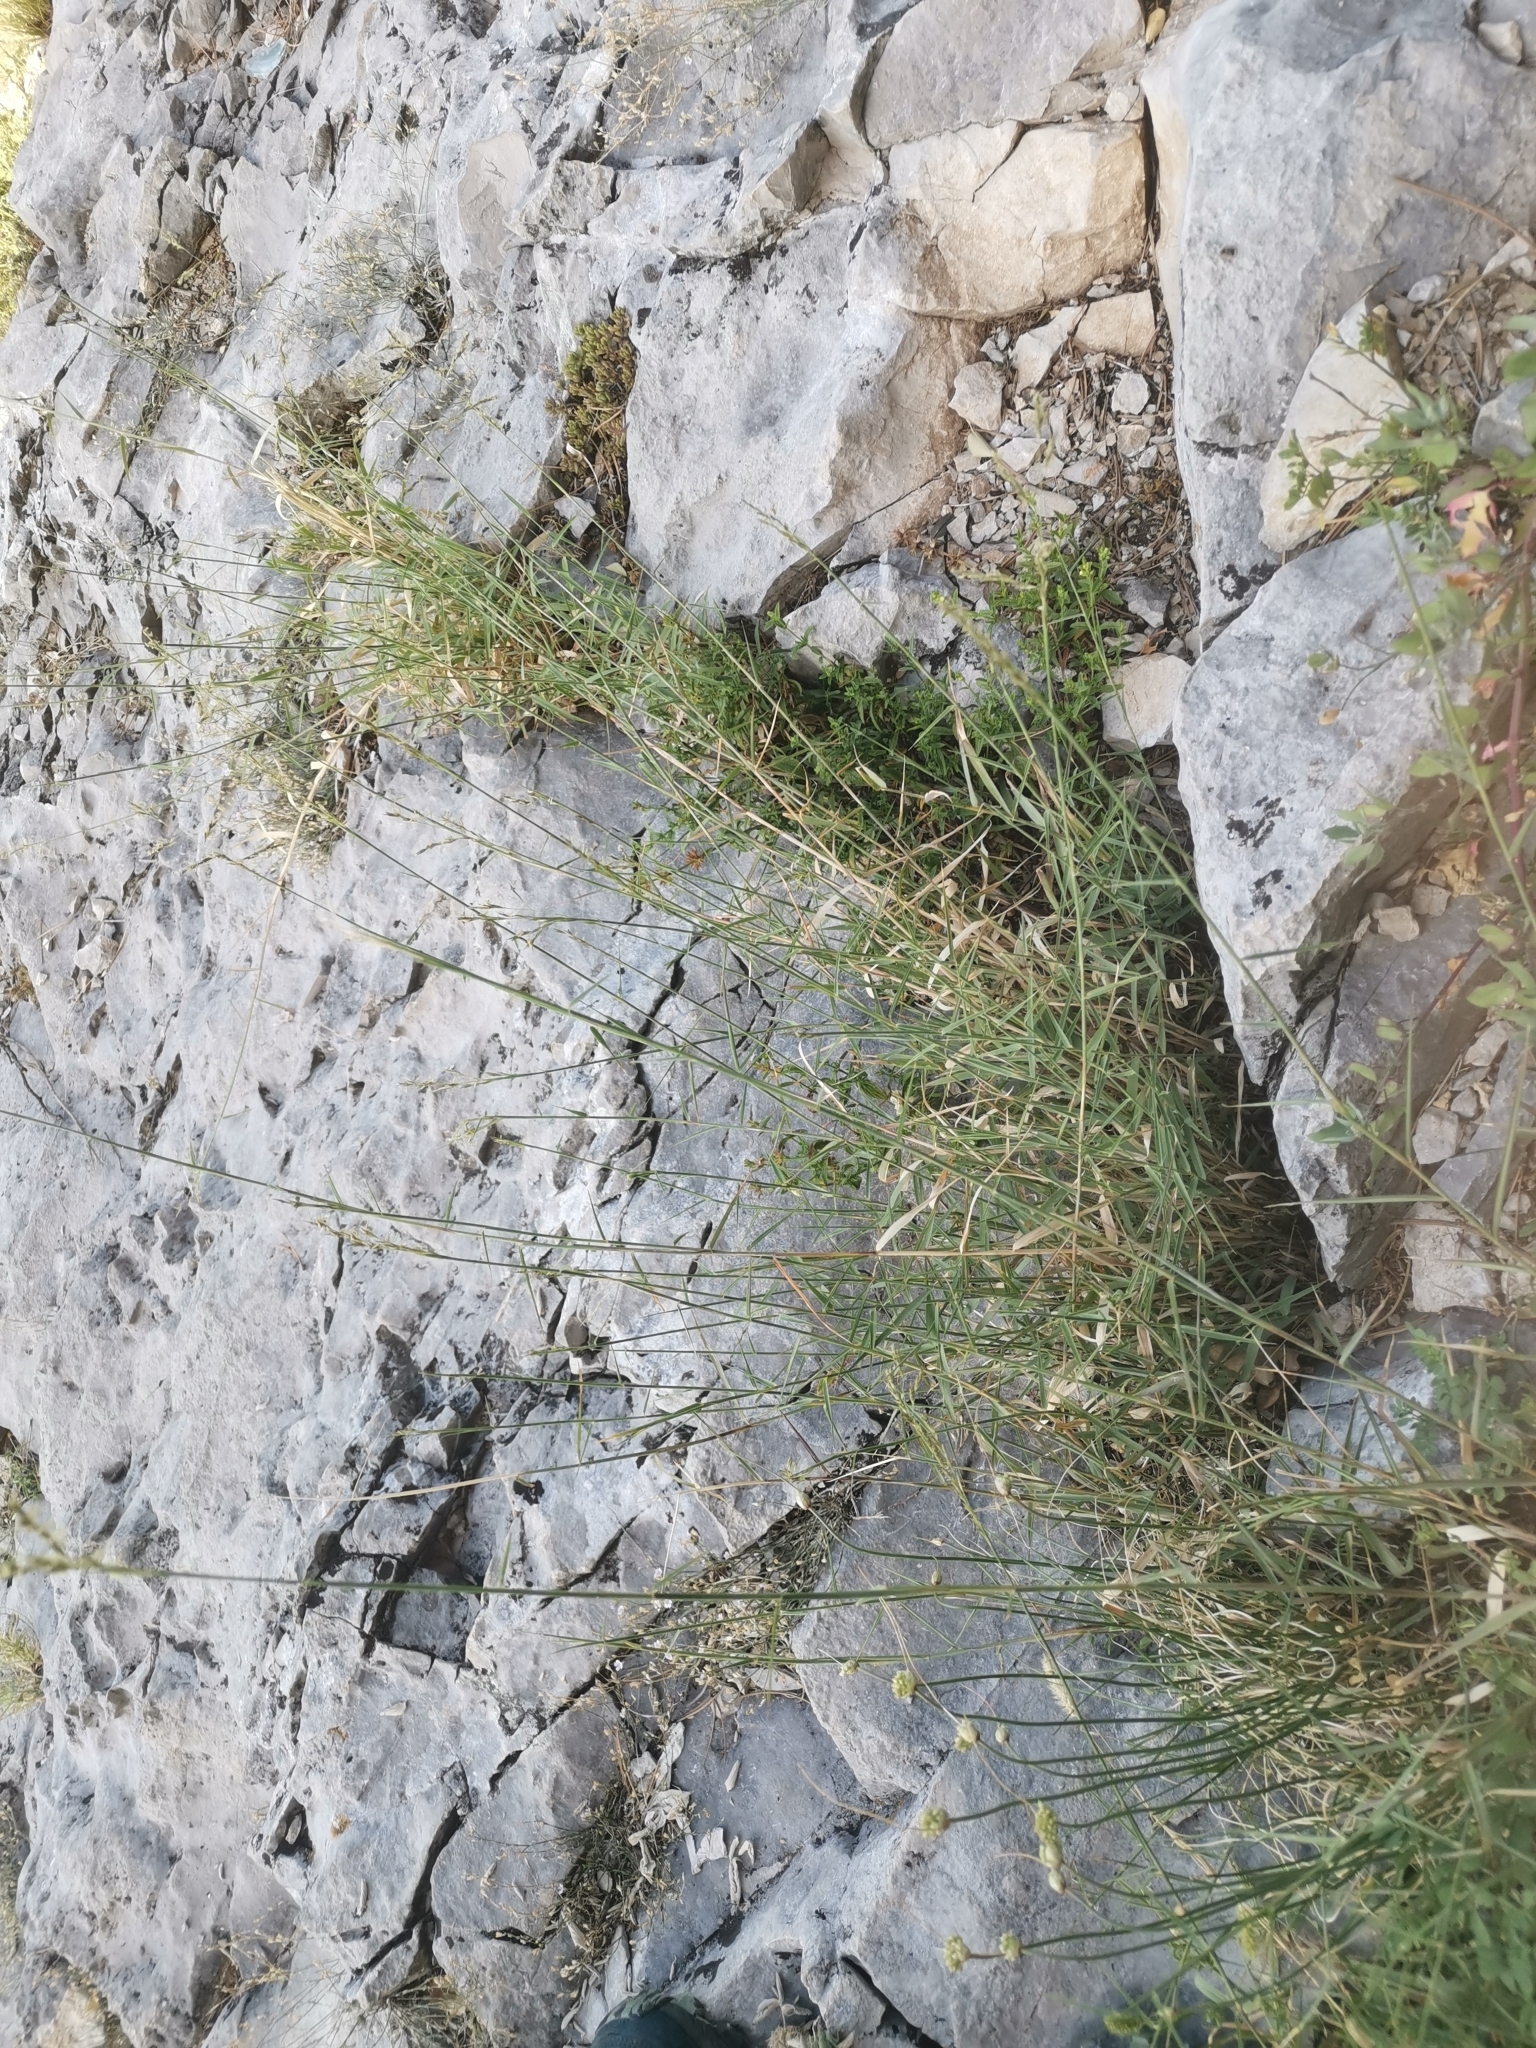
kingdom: Plantae
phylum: Tracheophyta
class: Liliopsida
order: Poales
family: Poaceae
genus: Cleistogenes
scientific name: Cleistogenes serotina
